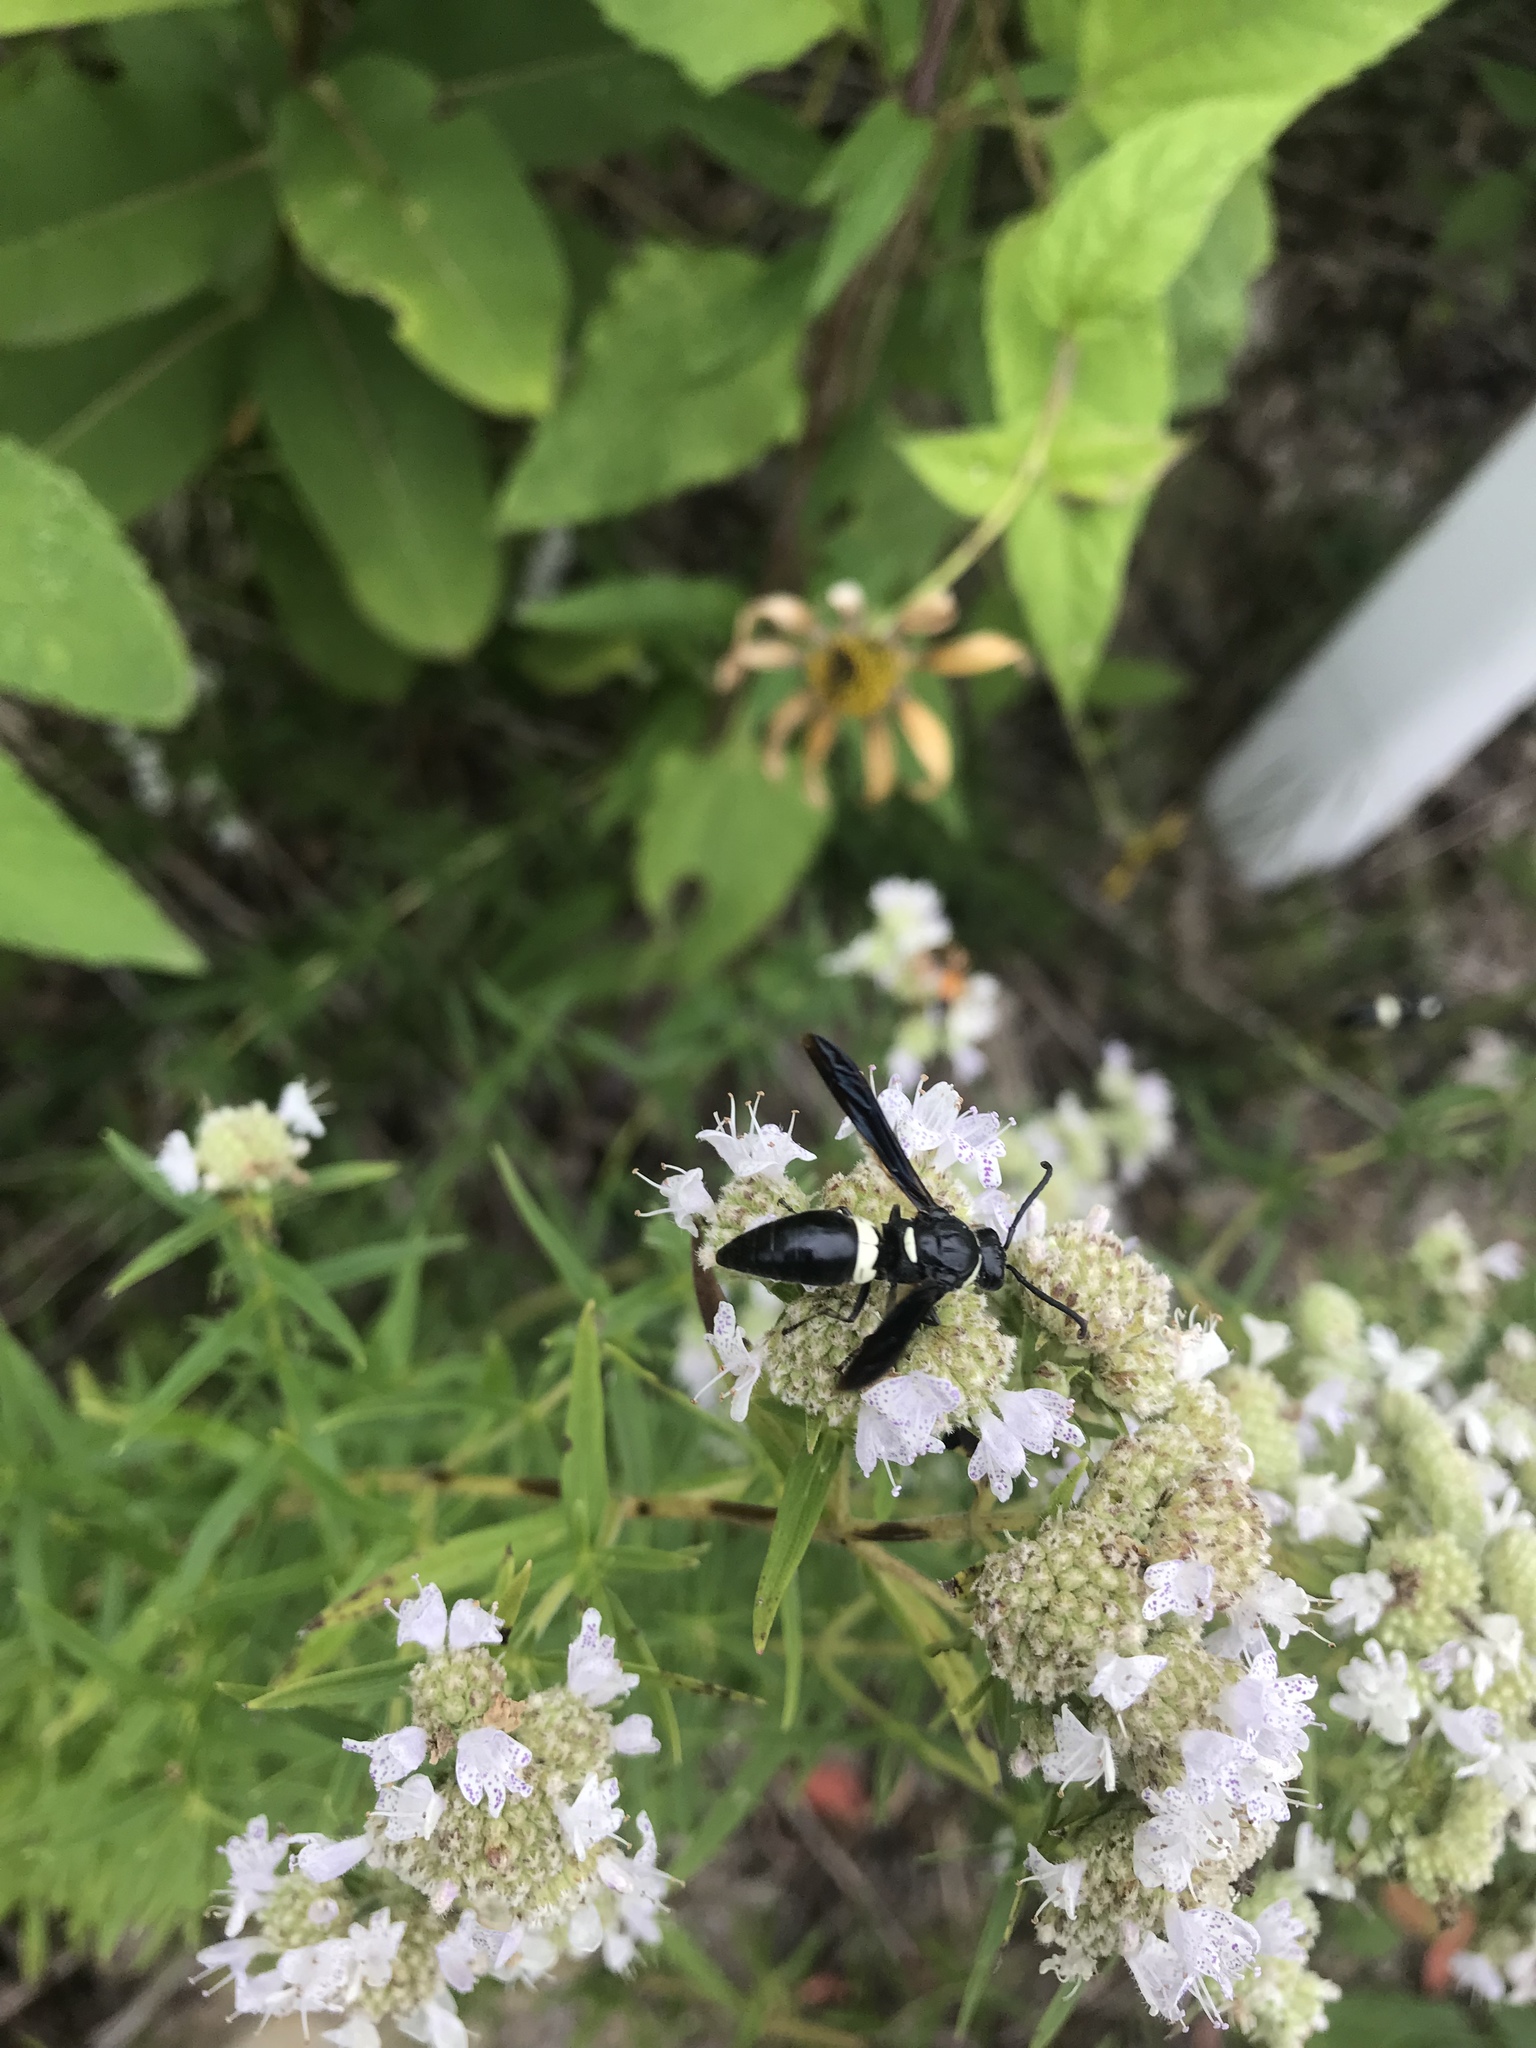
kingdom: Animalia
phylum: Arthropoda
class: Insecta
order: Hymenoptera
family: Eumenidae
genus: Monobia
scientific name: Monobia quadridens
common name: Four-toothed mason wasp
